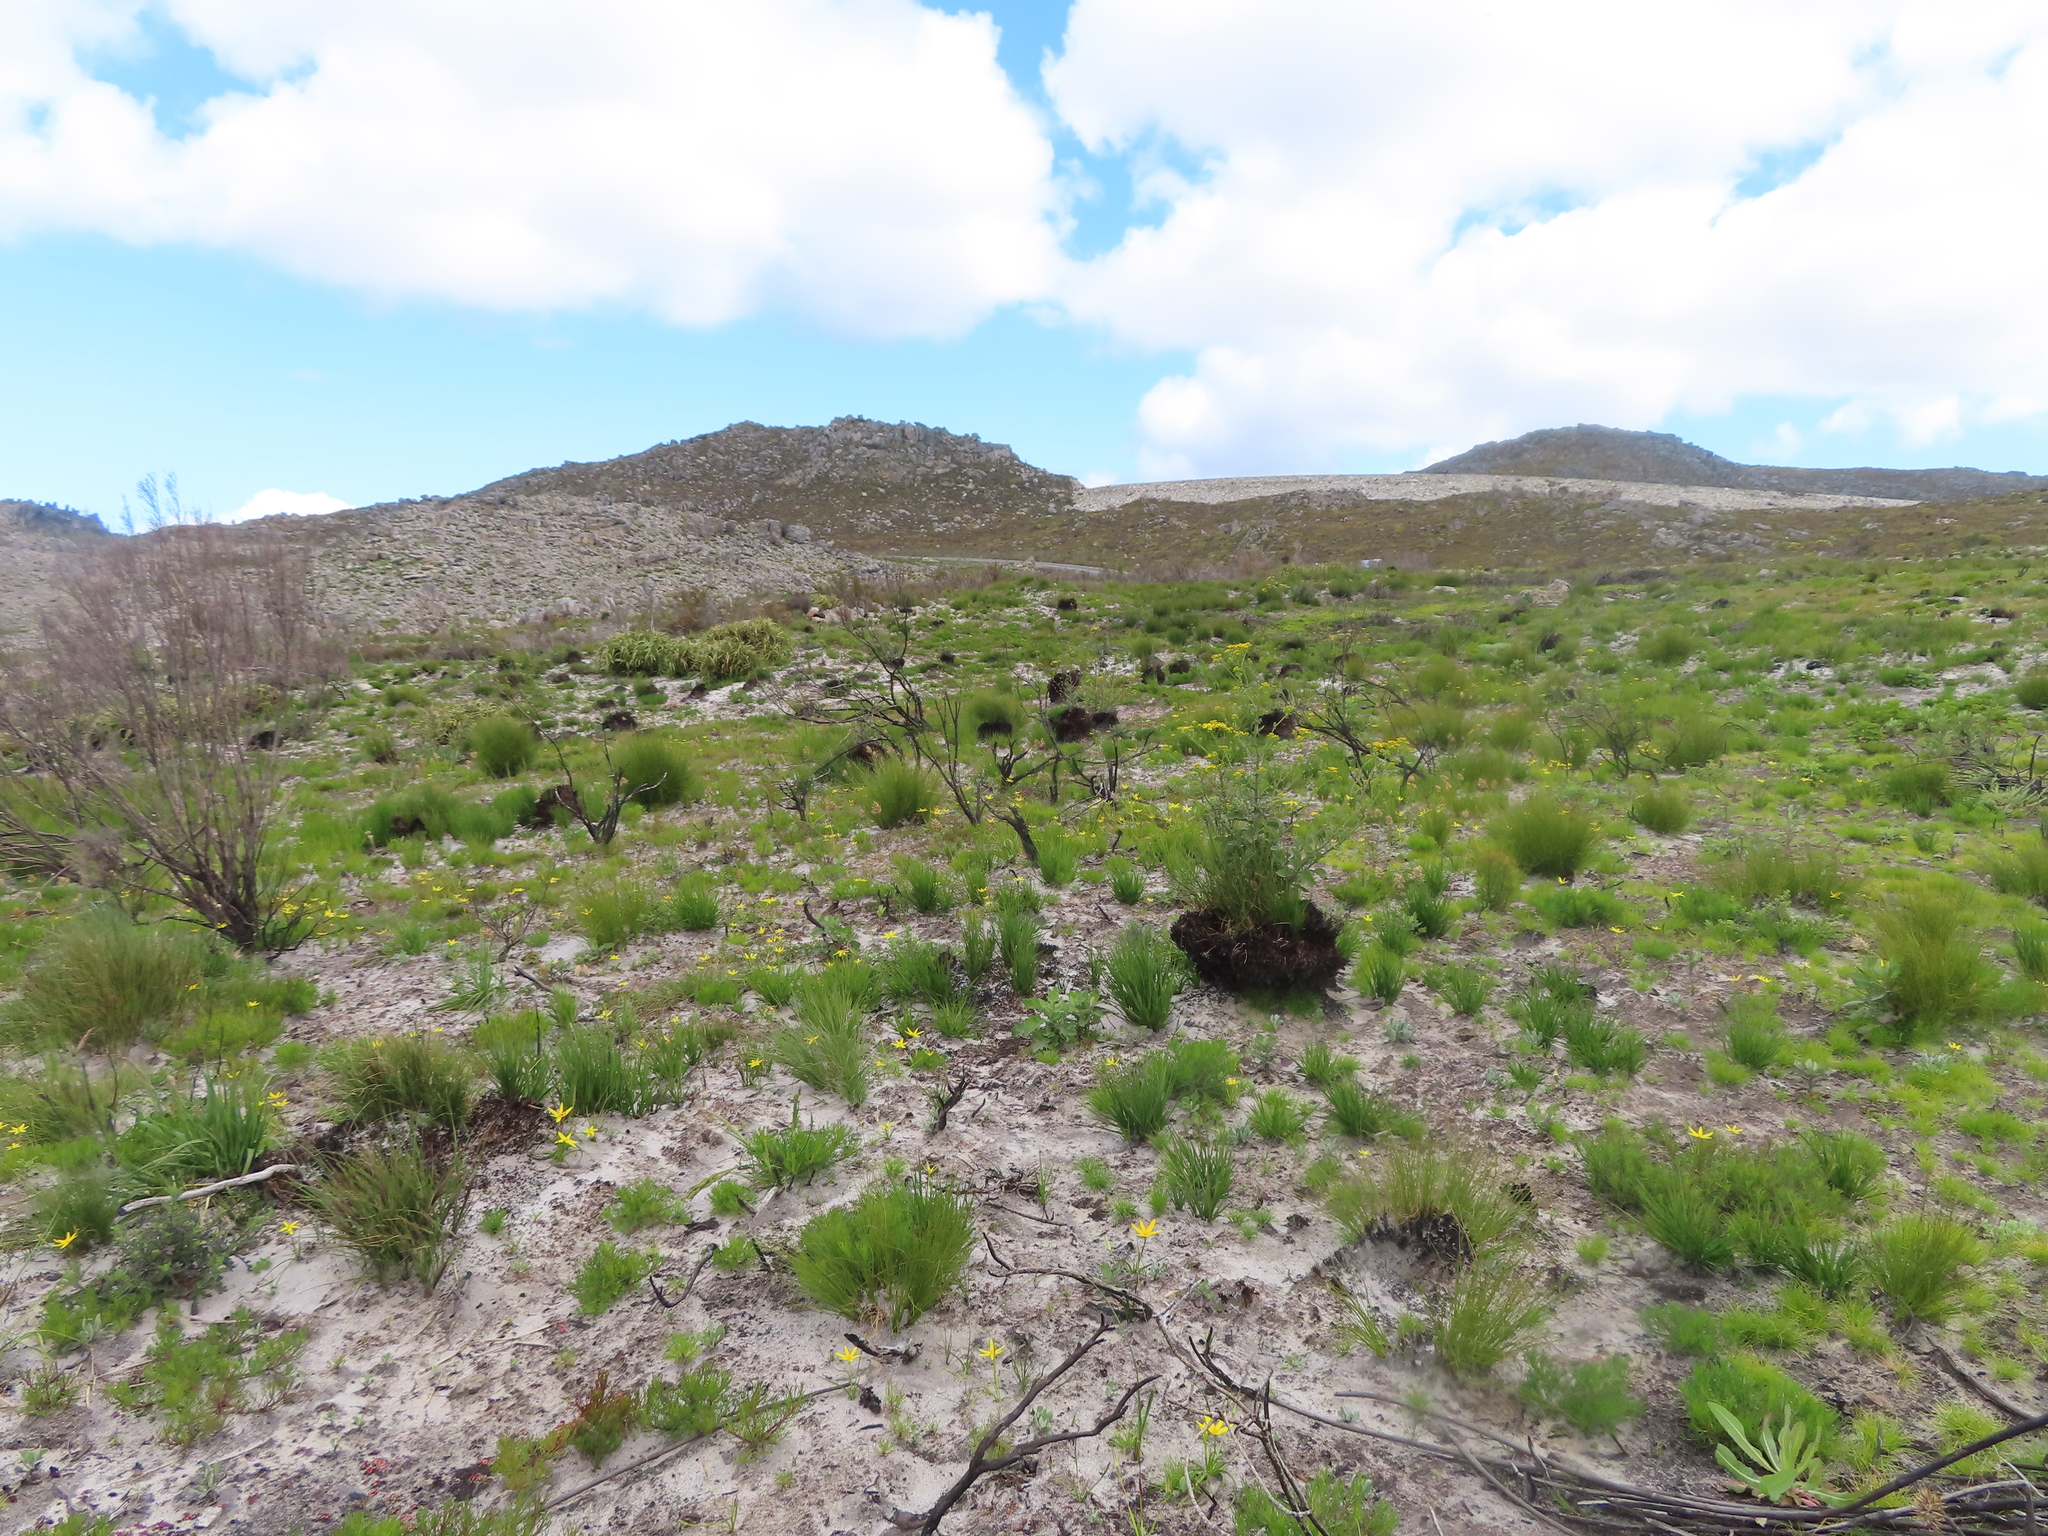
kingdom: Plantae
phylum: Tracheophyta
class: Liliopsida
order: Asparagales
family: Hypoxidaceae
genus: Pauridia
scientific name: Pauridia capensis
